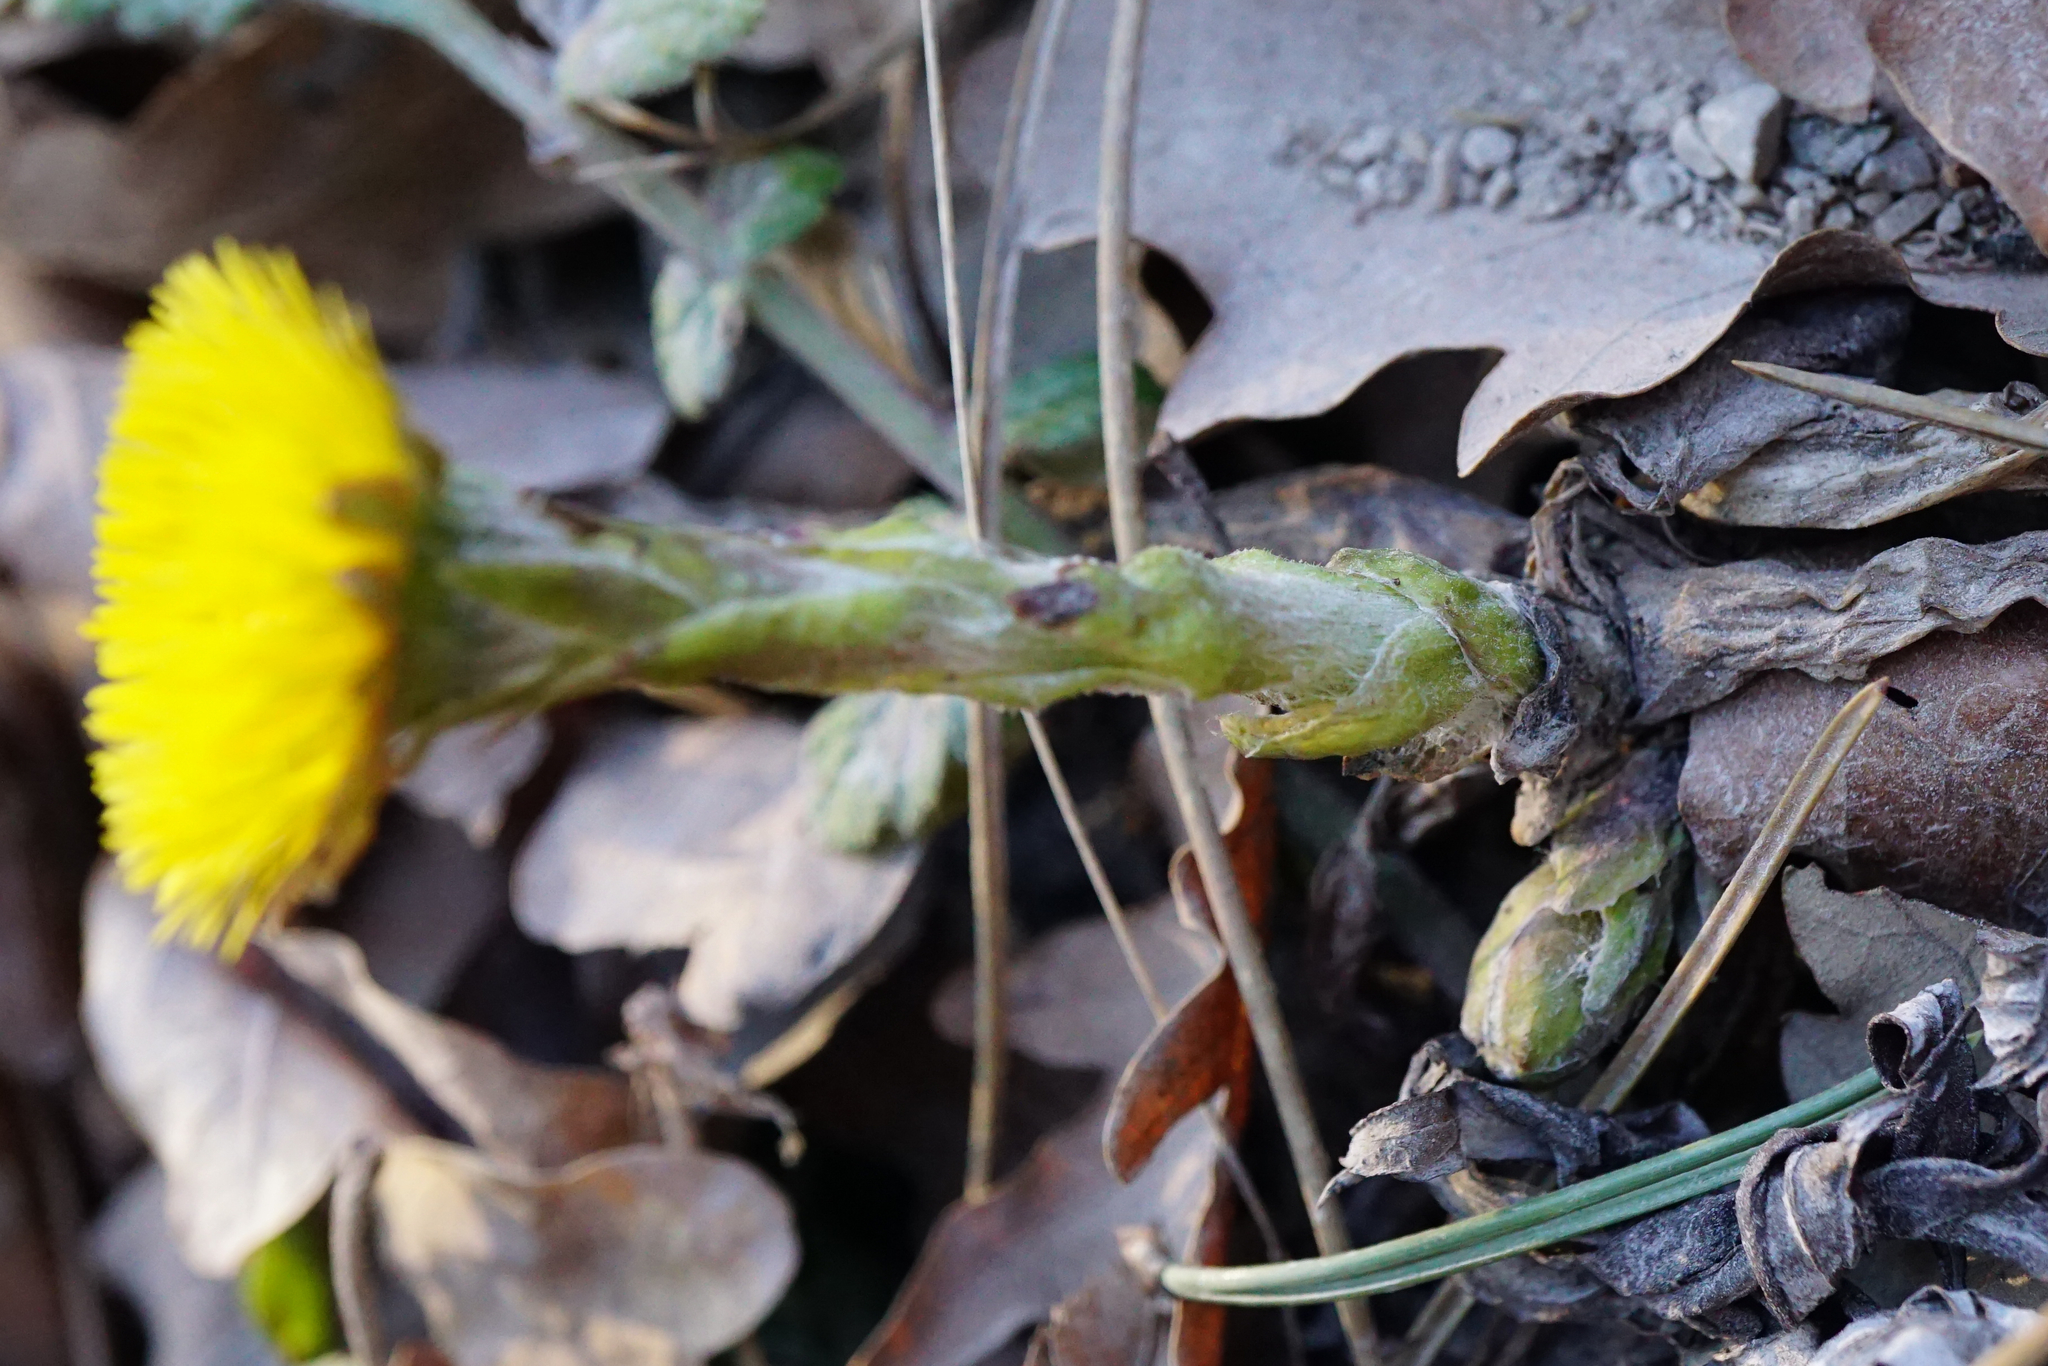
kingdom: Plantae
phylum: Tracheophyta
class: Magnoliopsida
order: Asterales
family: Asteraceae
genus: Tussilago
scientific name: Tussilago farfara
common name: Coltsfoot
